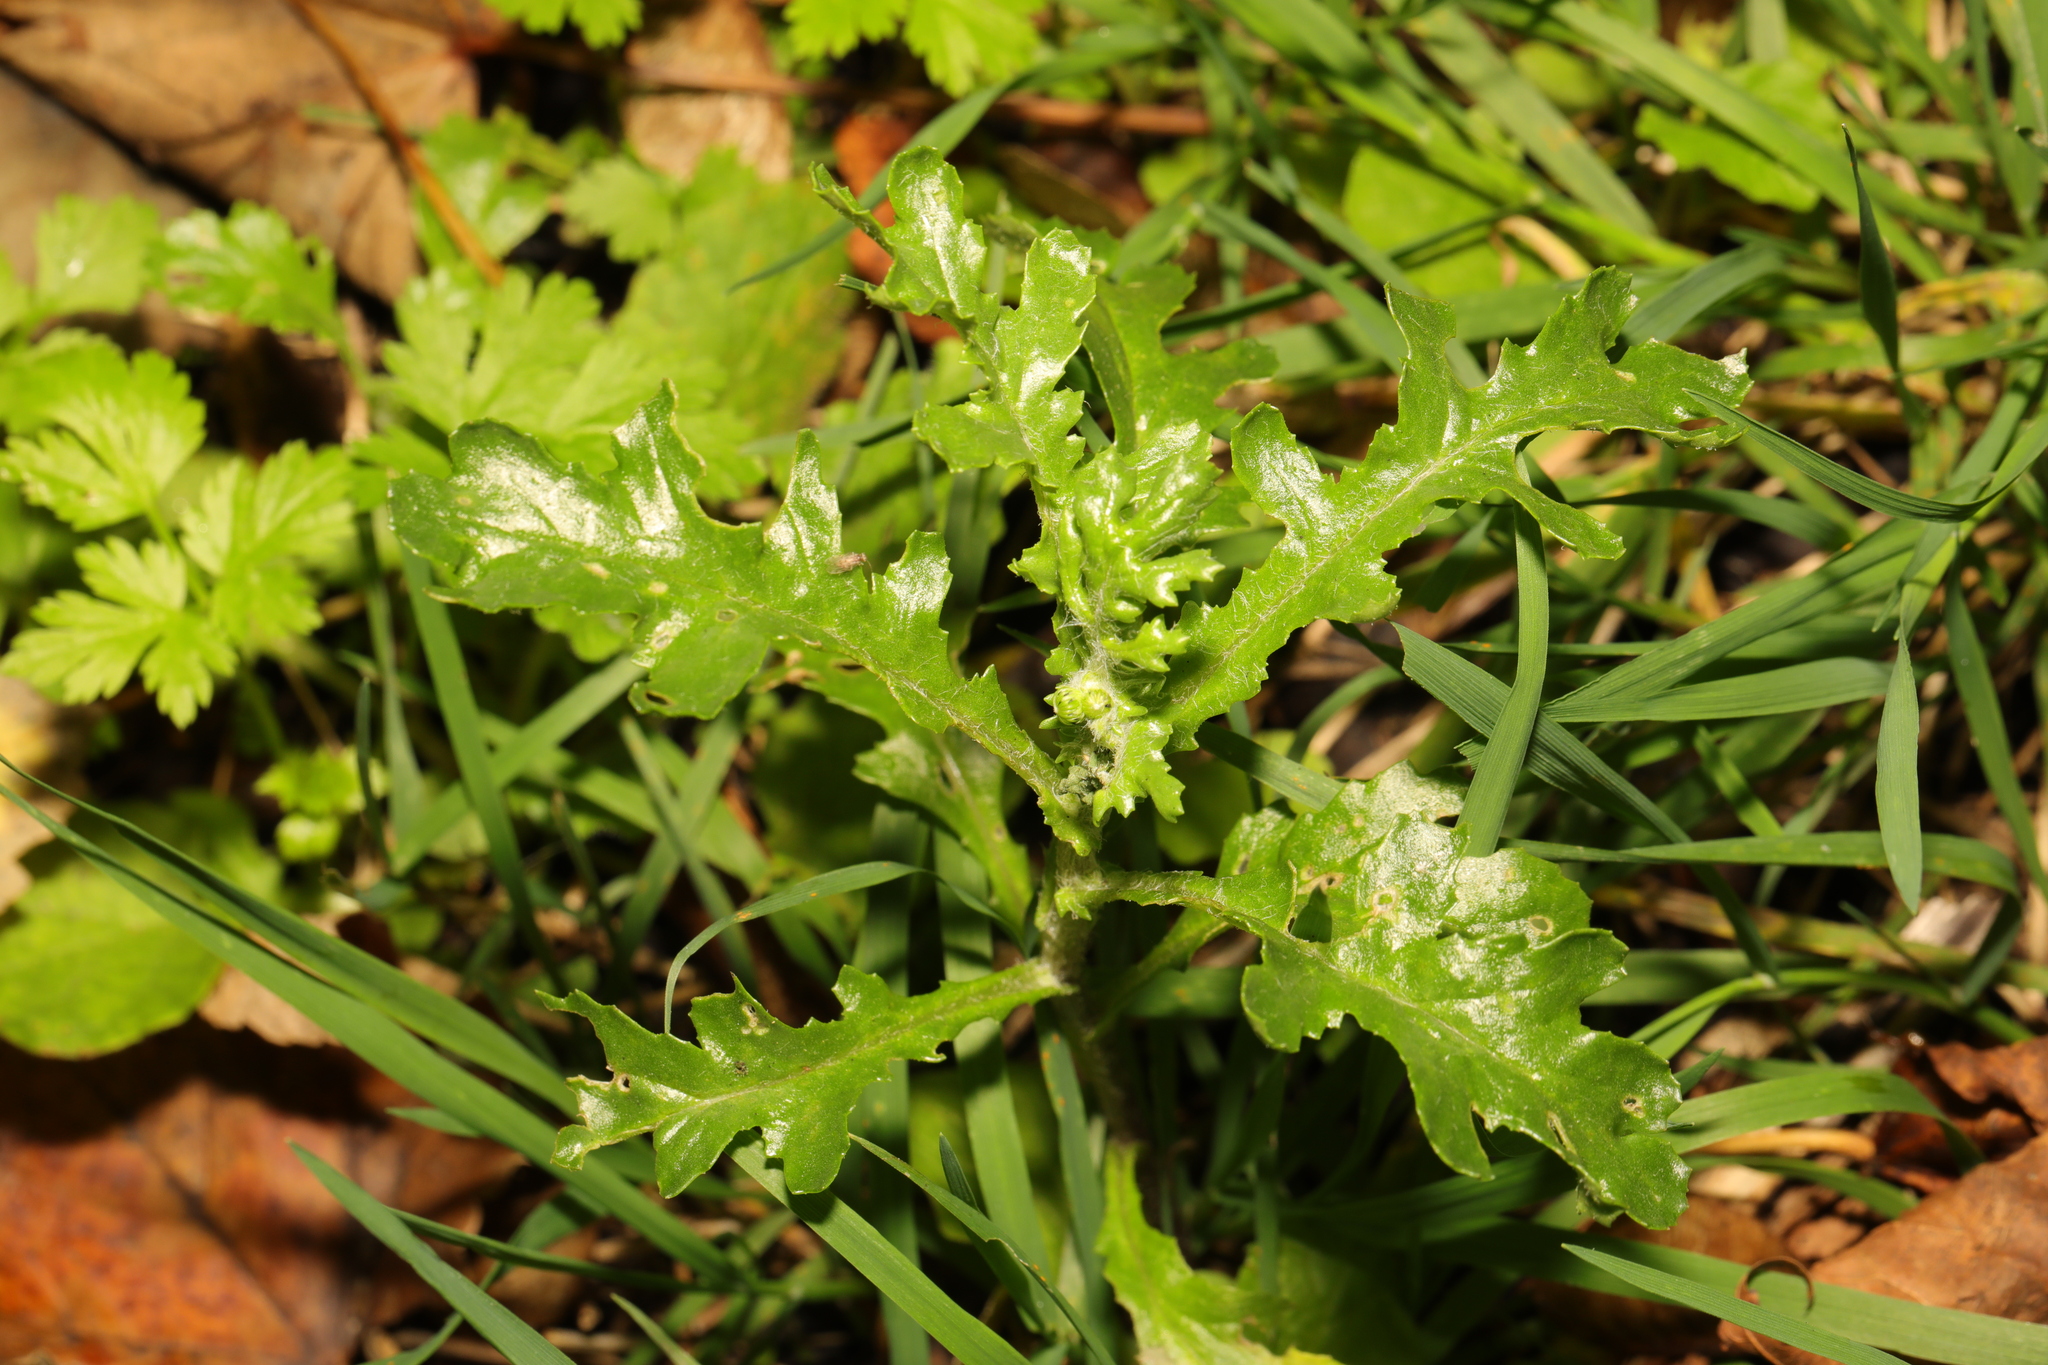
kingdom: Plantae
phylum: Tracheophyta
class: Magnoliopsida
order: Asterales
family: Asteraceae
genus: Senecio
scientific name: Senecio vulgaris
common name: Old-man-in-the-spring
